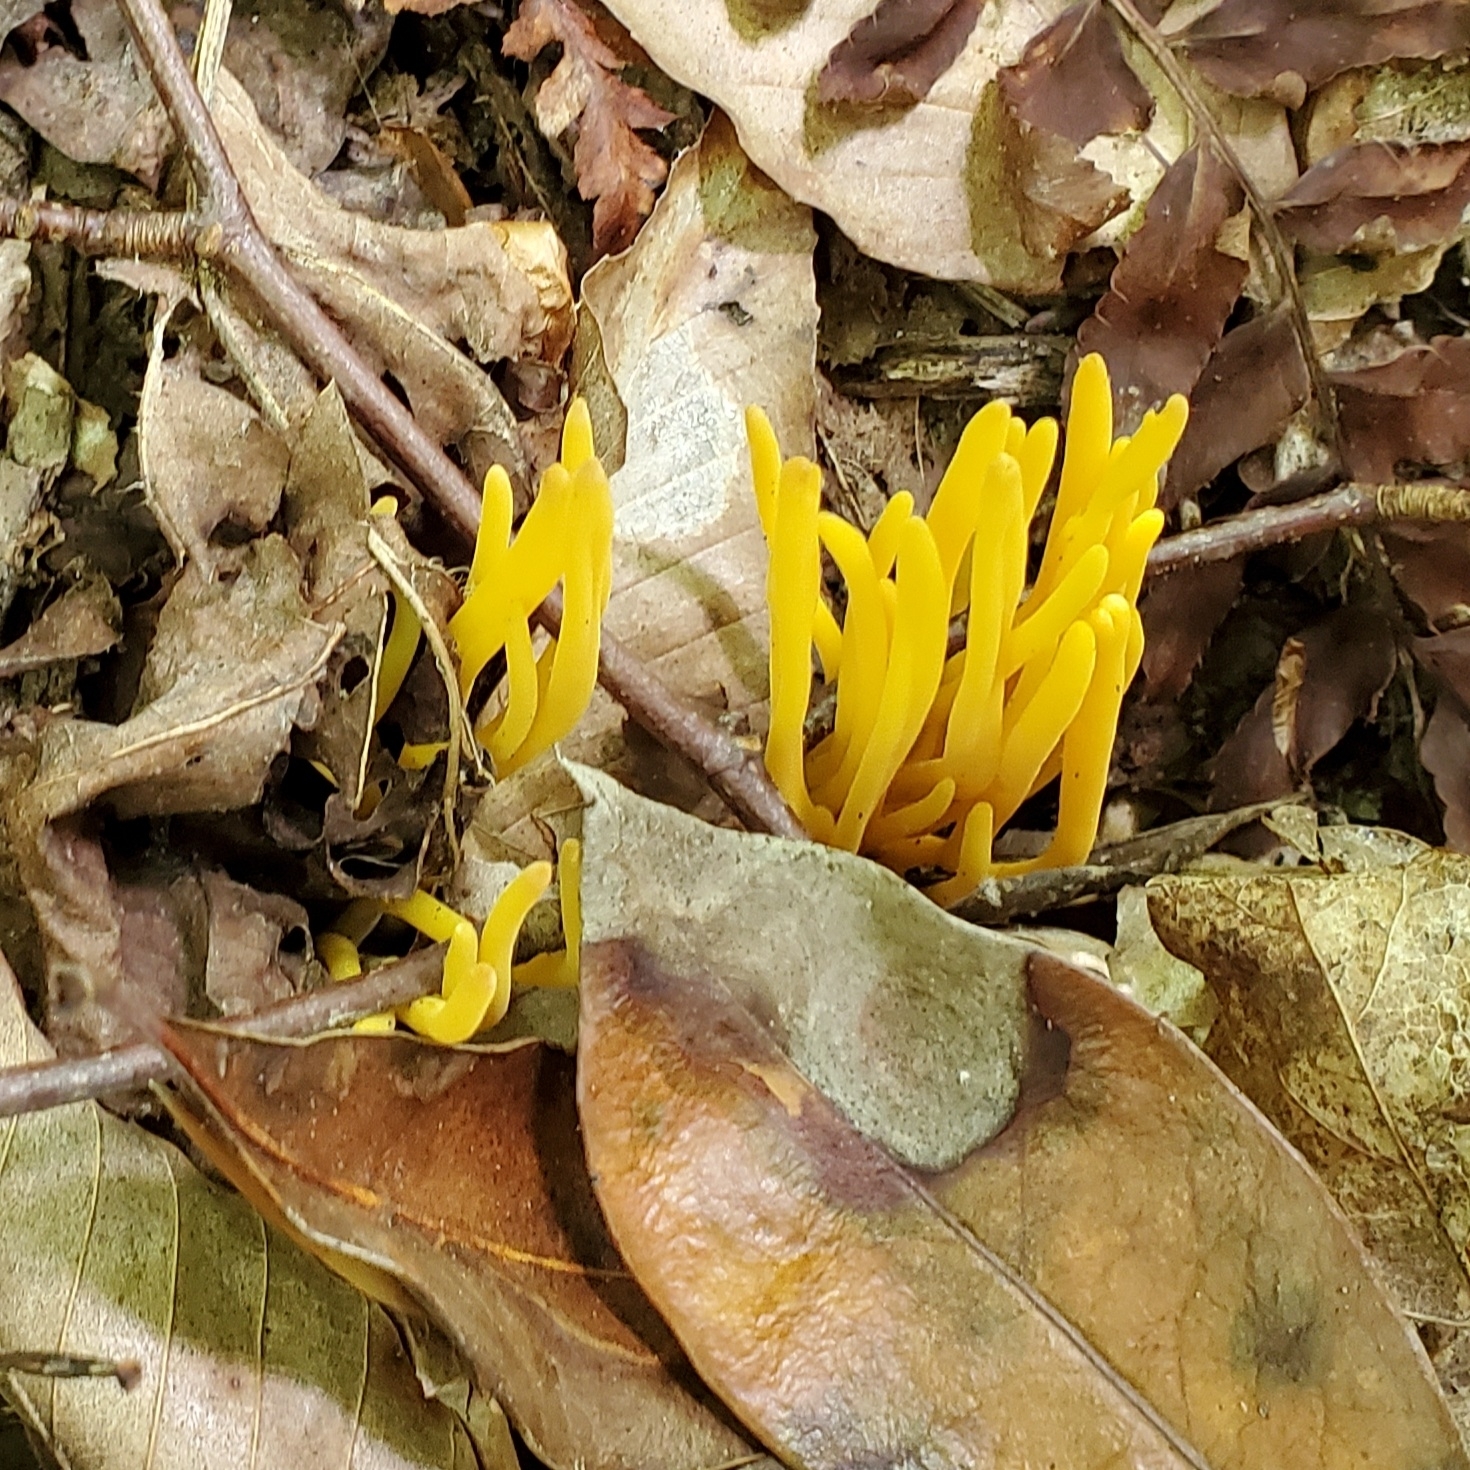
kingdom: Fungi
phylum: Basidiomycota
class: Agaricomycetes
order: Agaricales
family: Clavariaceae
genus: Clavulinopsis
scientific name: Clavulinopsis fusiformis
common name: Golden spindles
